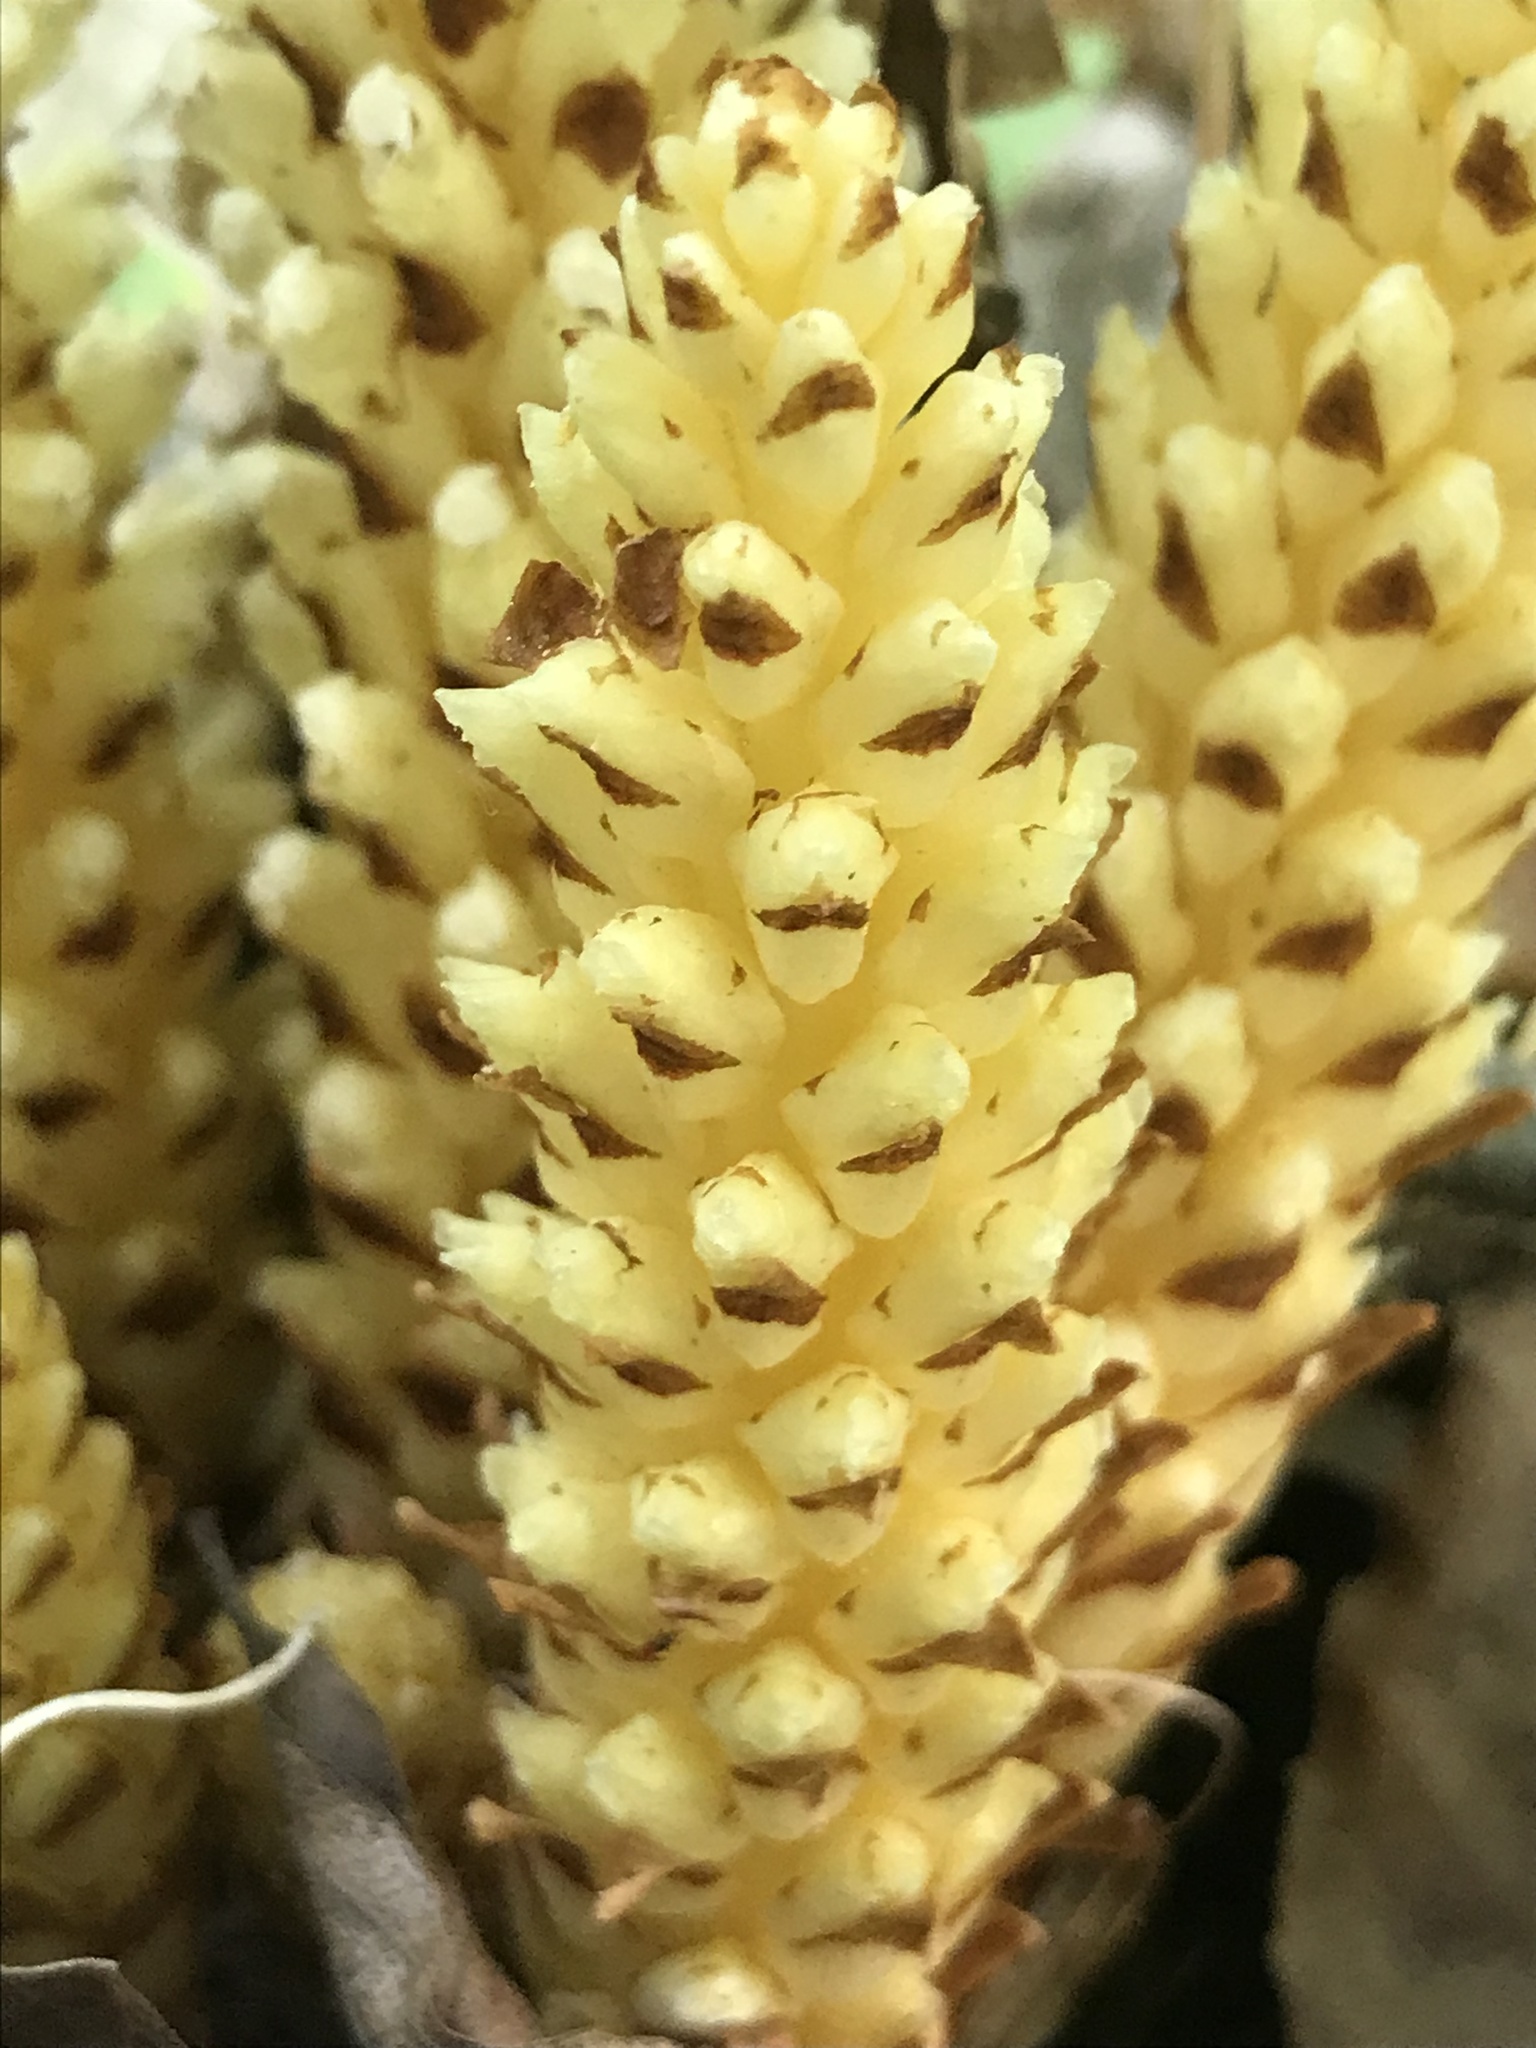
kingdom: Plantae
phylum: Tracheophyta
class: Magnoliopsida
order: Lamiales
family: Orobanchaceae
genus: Conopholis
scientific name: Conopholis americana
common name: American cancer-root
